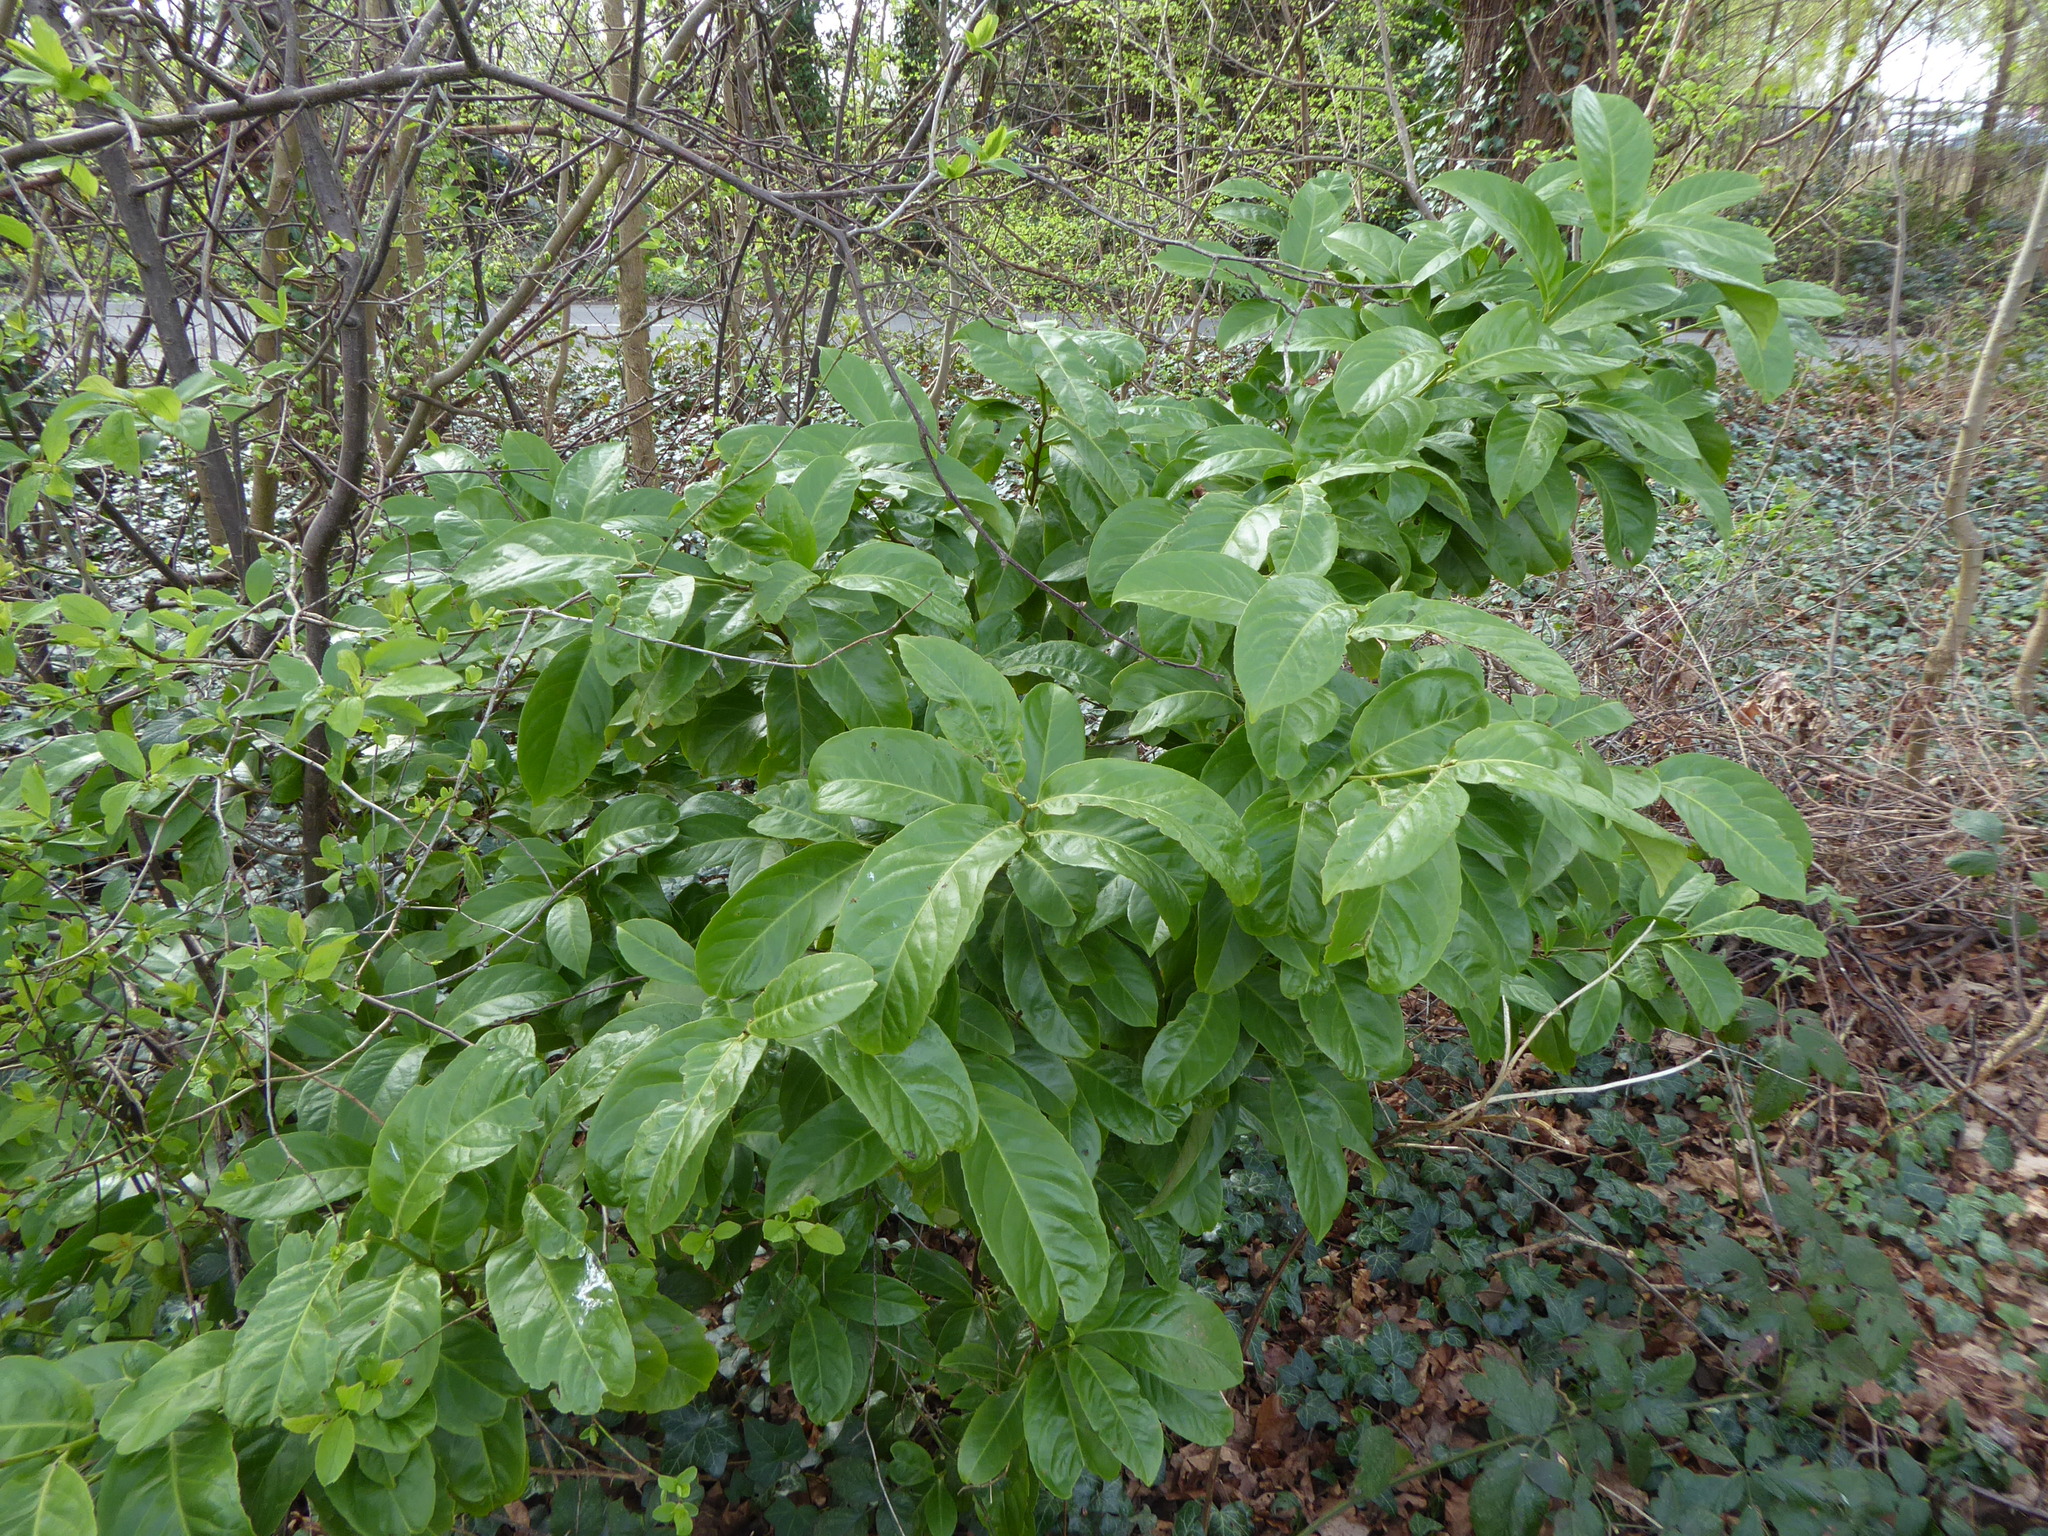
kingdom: Plantae
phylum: Tracheophyta
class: Magnoliopsida
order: Rosales
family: Rosaceae
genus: Prunus
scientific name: Prunus laurocerasus
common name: Cherry laurel
